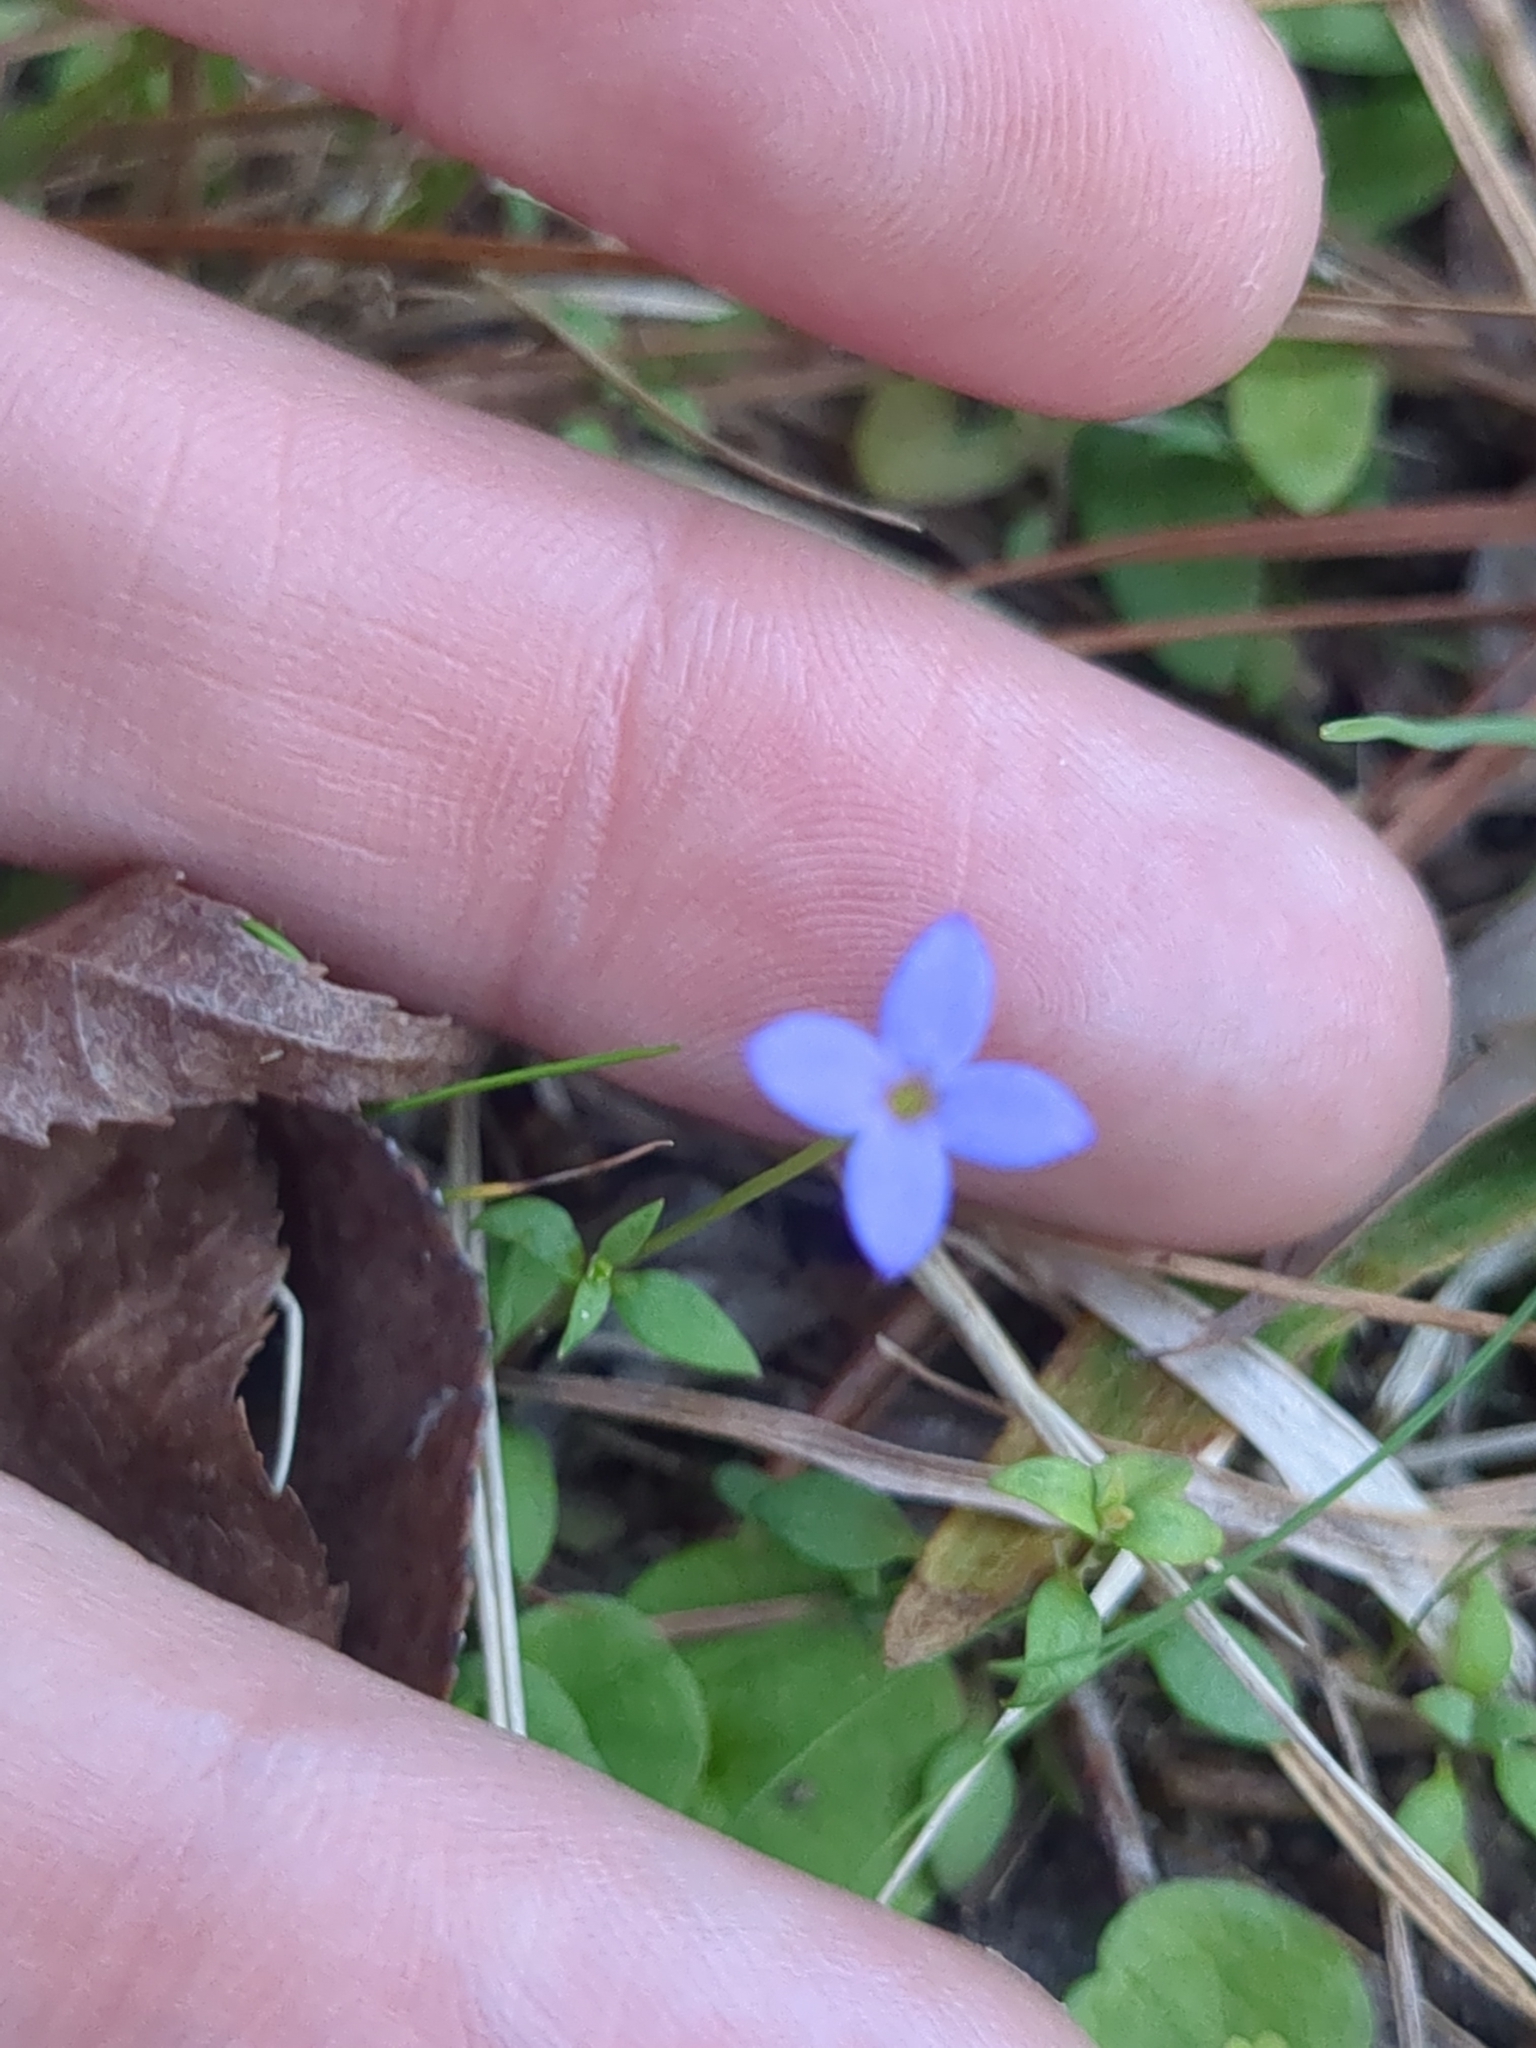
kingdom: Plantae
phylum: Tracheophyta
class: Magnoliopsida
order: Gentianales
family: Rubiaceae
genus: Houstonia
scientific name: Houstonia pusilla
